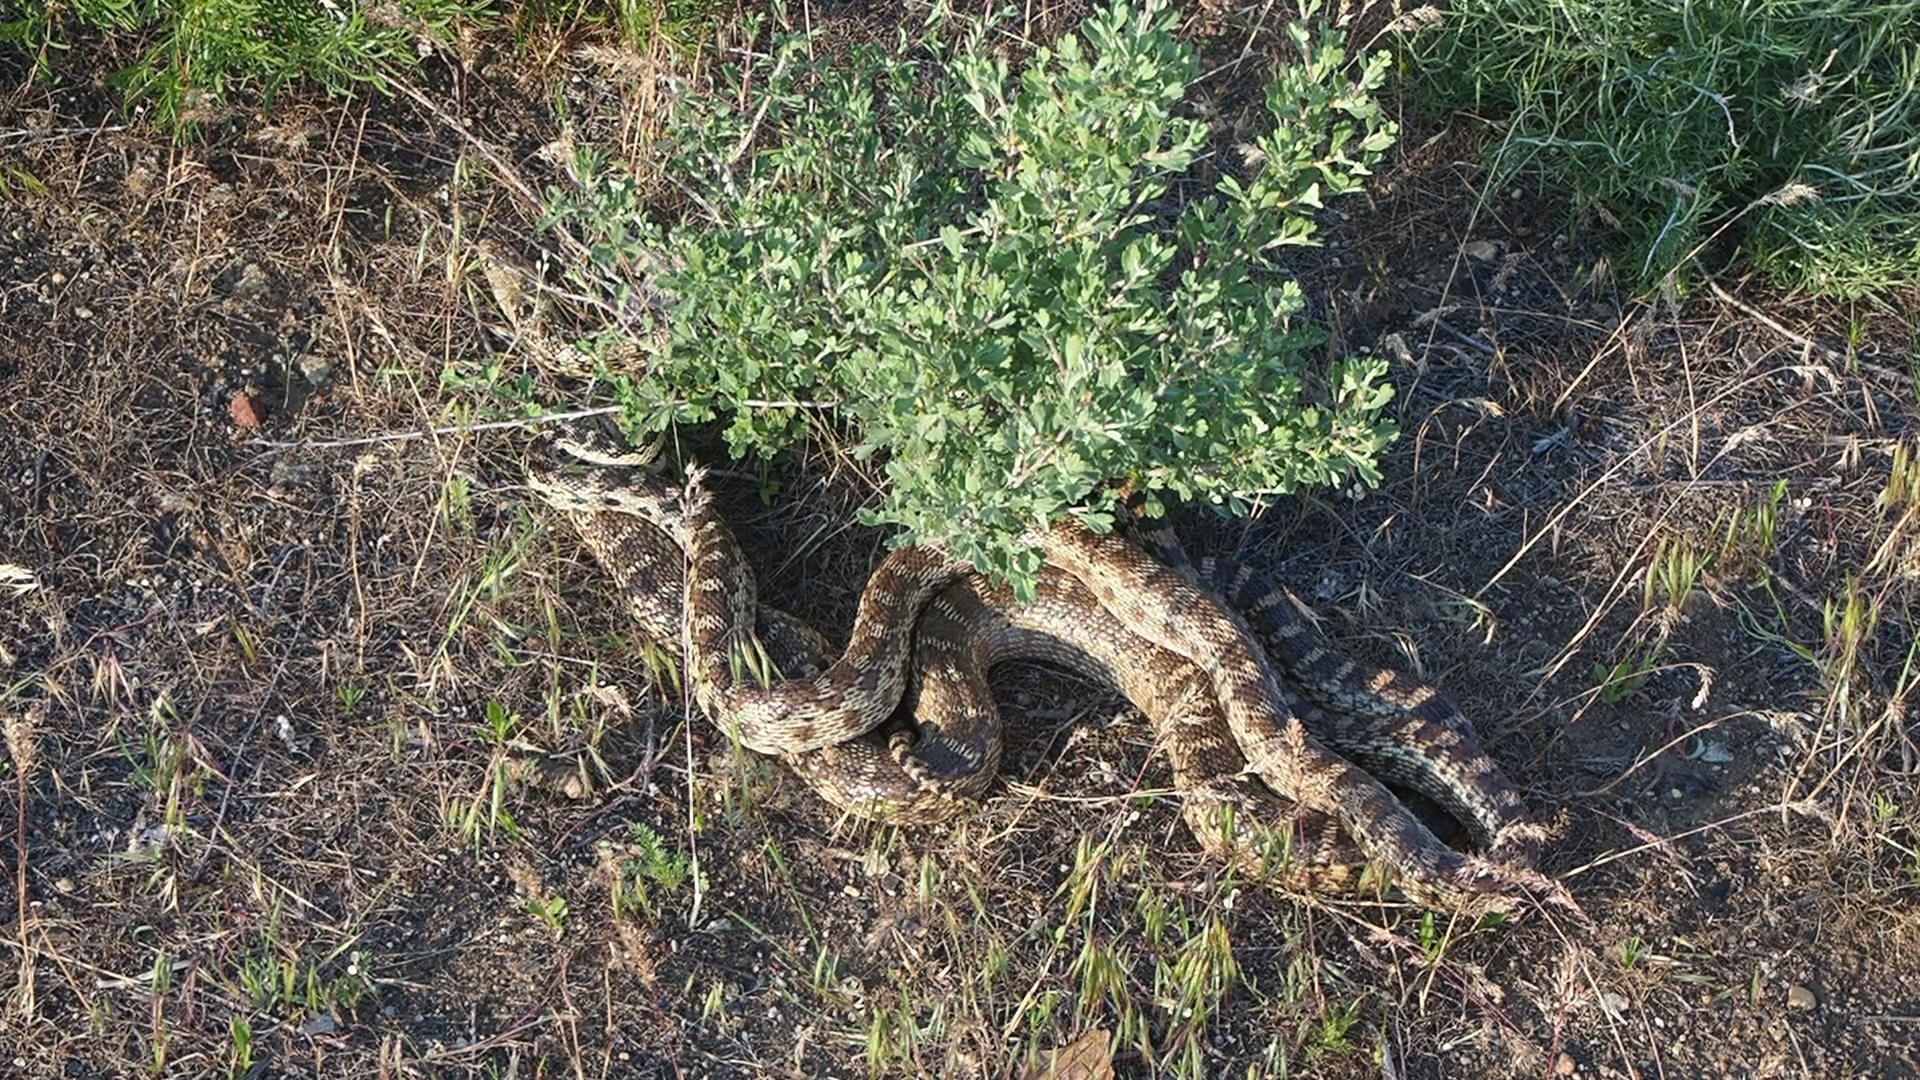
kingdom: Animalia
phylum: Chordata
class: Squamata
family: Colubridae
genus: Pituophis
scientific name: Pituophis catenifer
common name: Gopher snake
